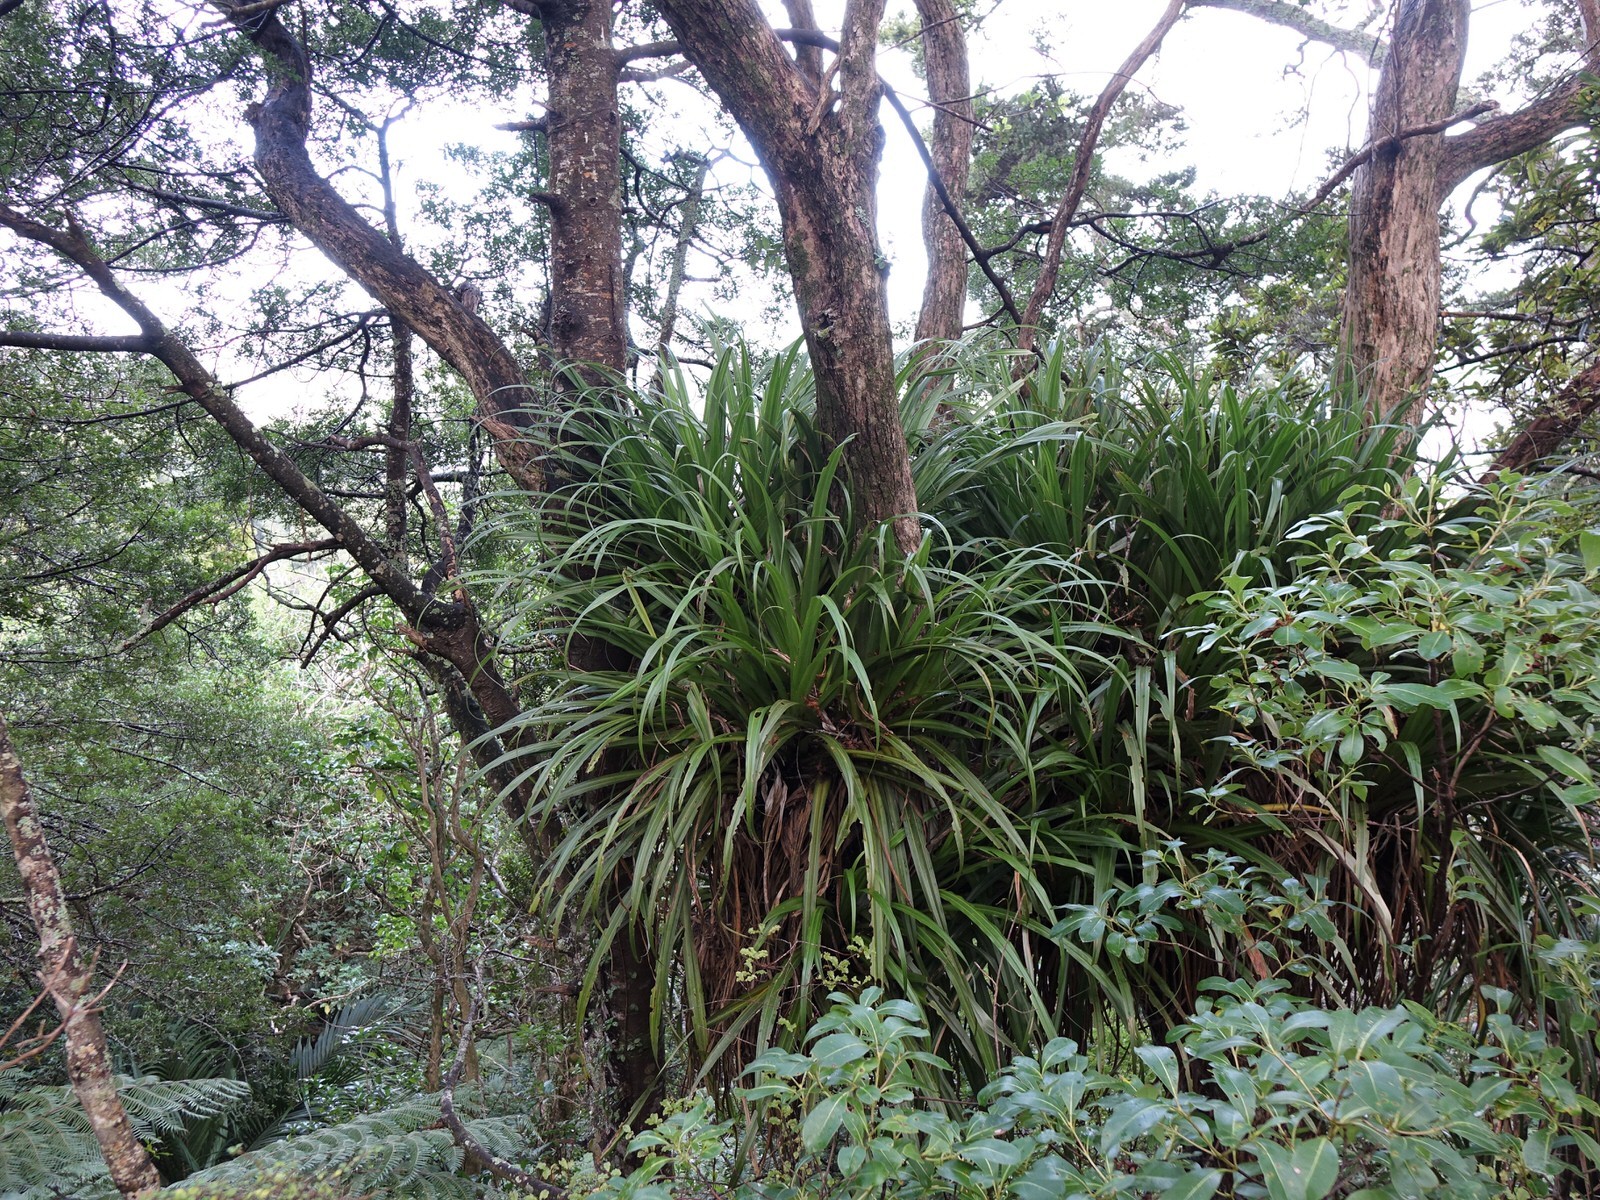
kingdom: Plantae
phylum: Tracheophyta
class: Liliopsida
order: Asparagales
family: Asteliaceae
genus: Astelia
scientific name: Astelia hastata
